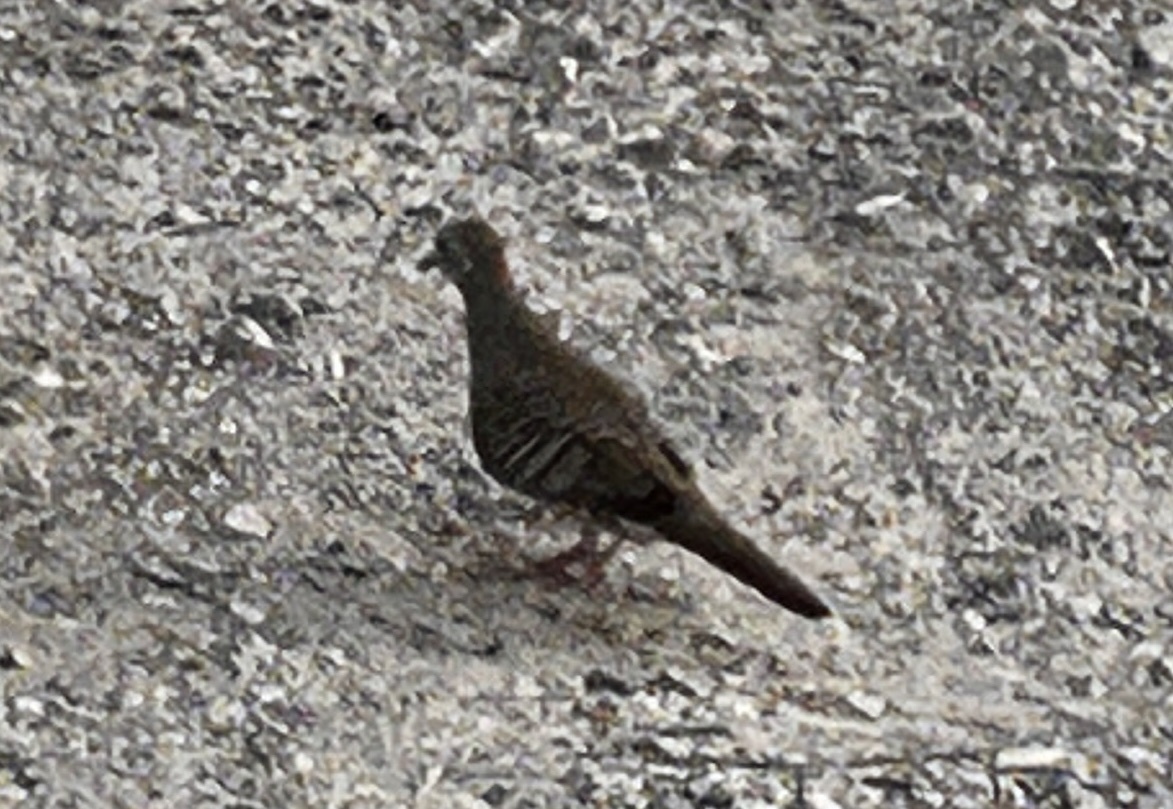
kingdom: Animalia
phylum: Chordata
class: Aves
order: Columbiformes
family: Columbidae
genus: Geopelia
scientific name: Geopelia striata
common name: Zebra dove
